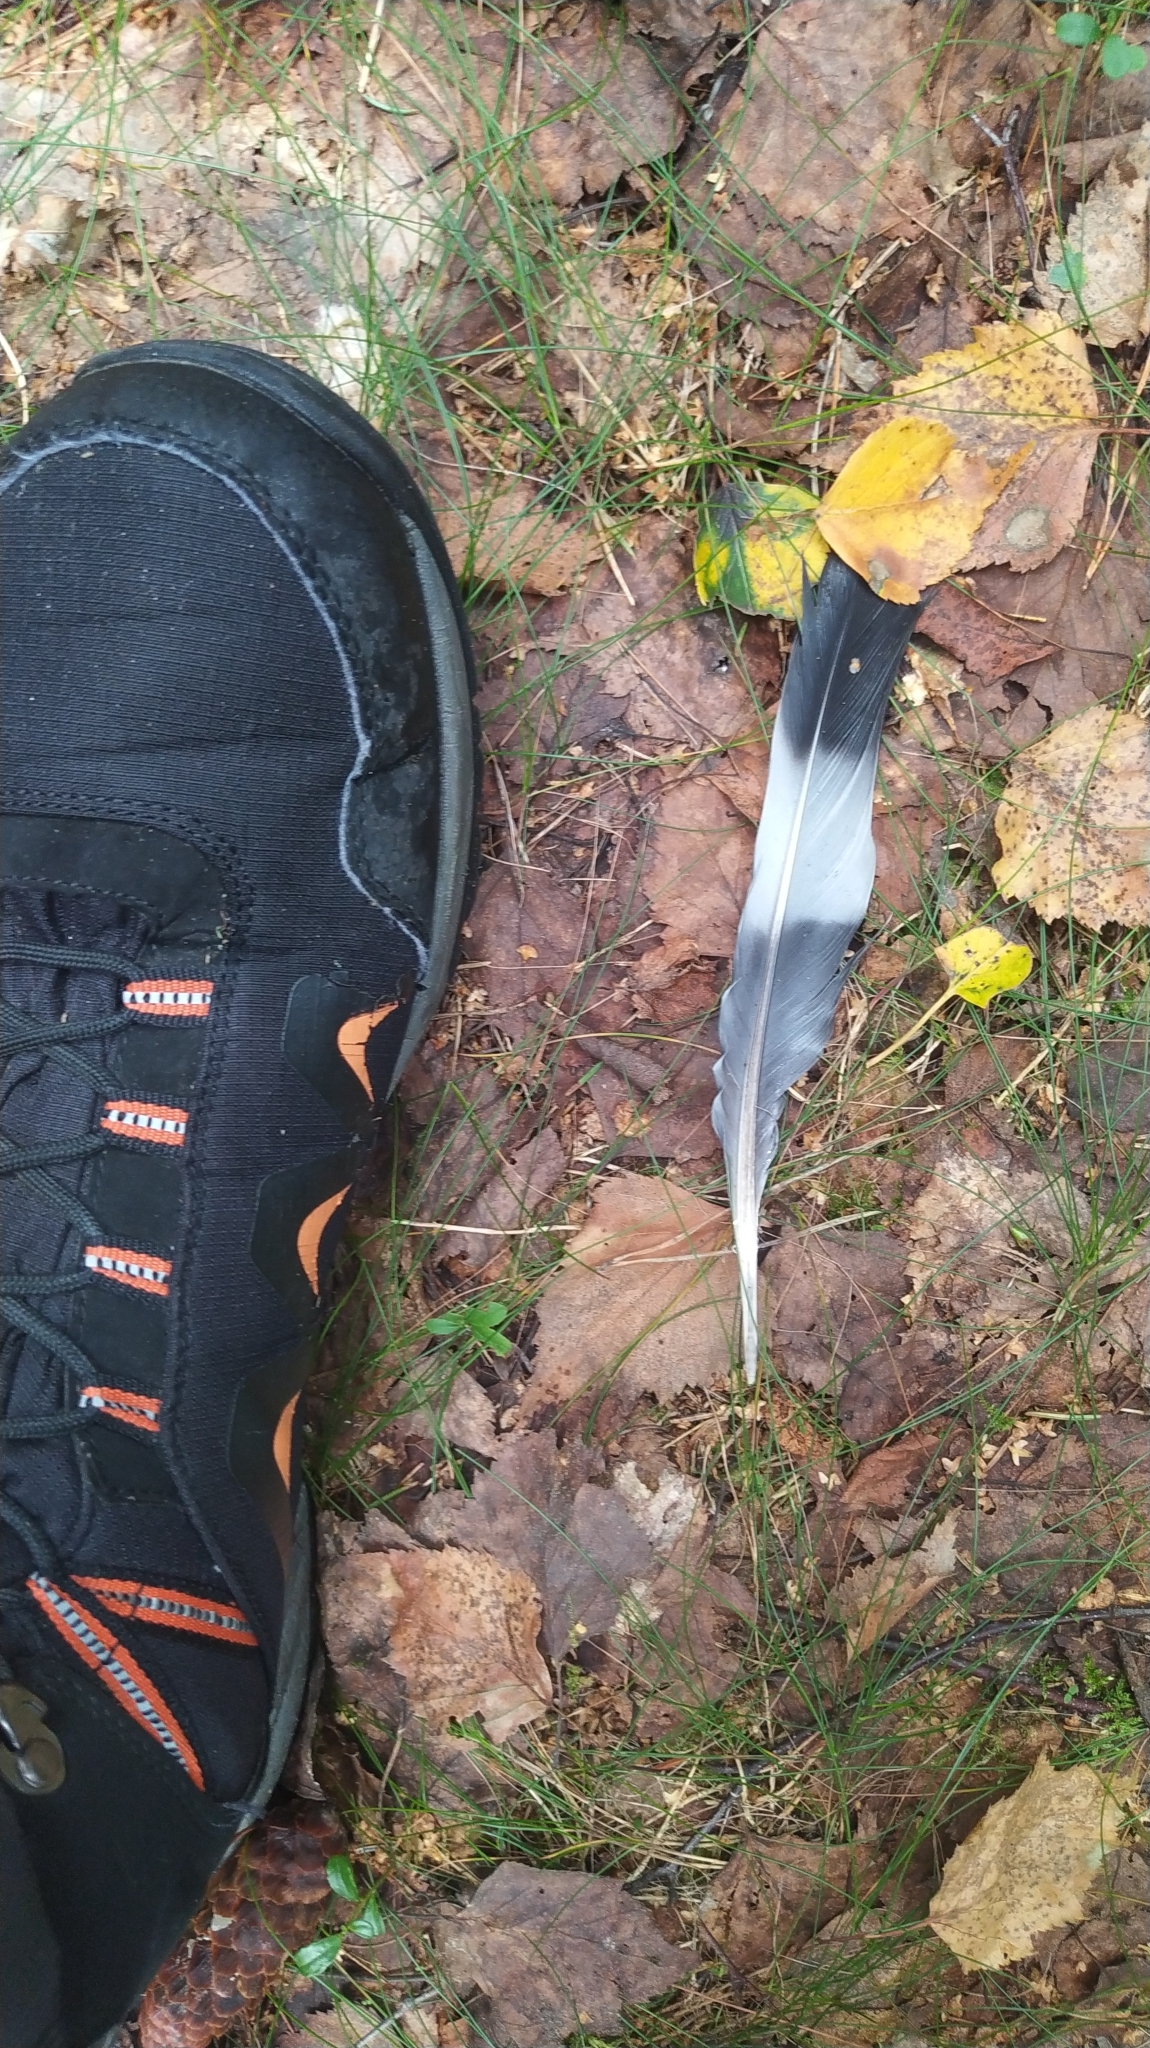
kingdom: Animalia
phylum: Chordata
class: Aves
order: Columbiformes
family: Columbidae
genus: Columba
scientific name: Columba palumbus
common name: Common wood pigeon
